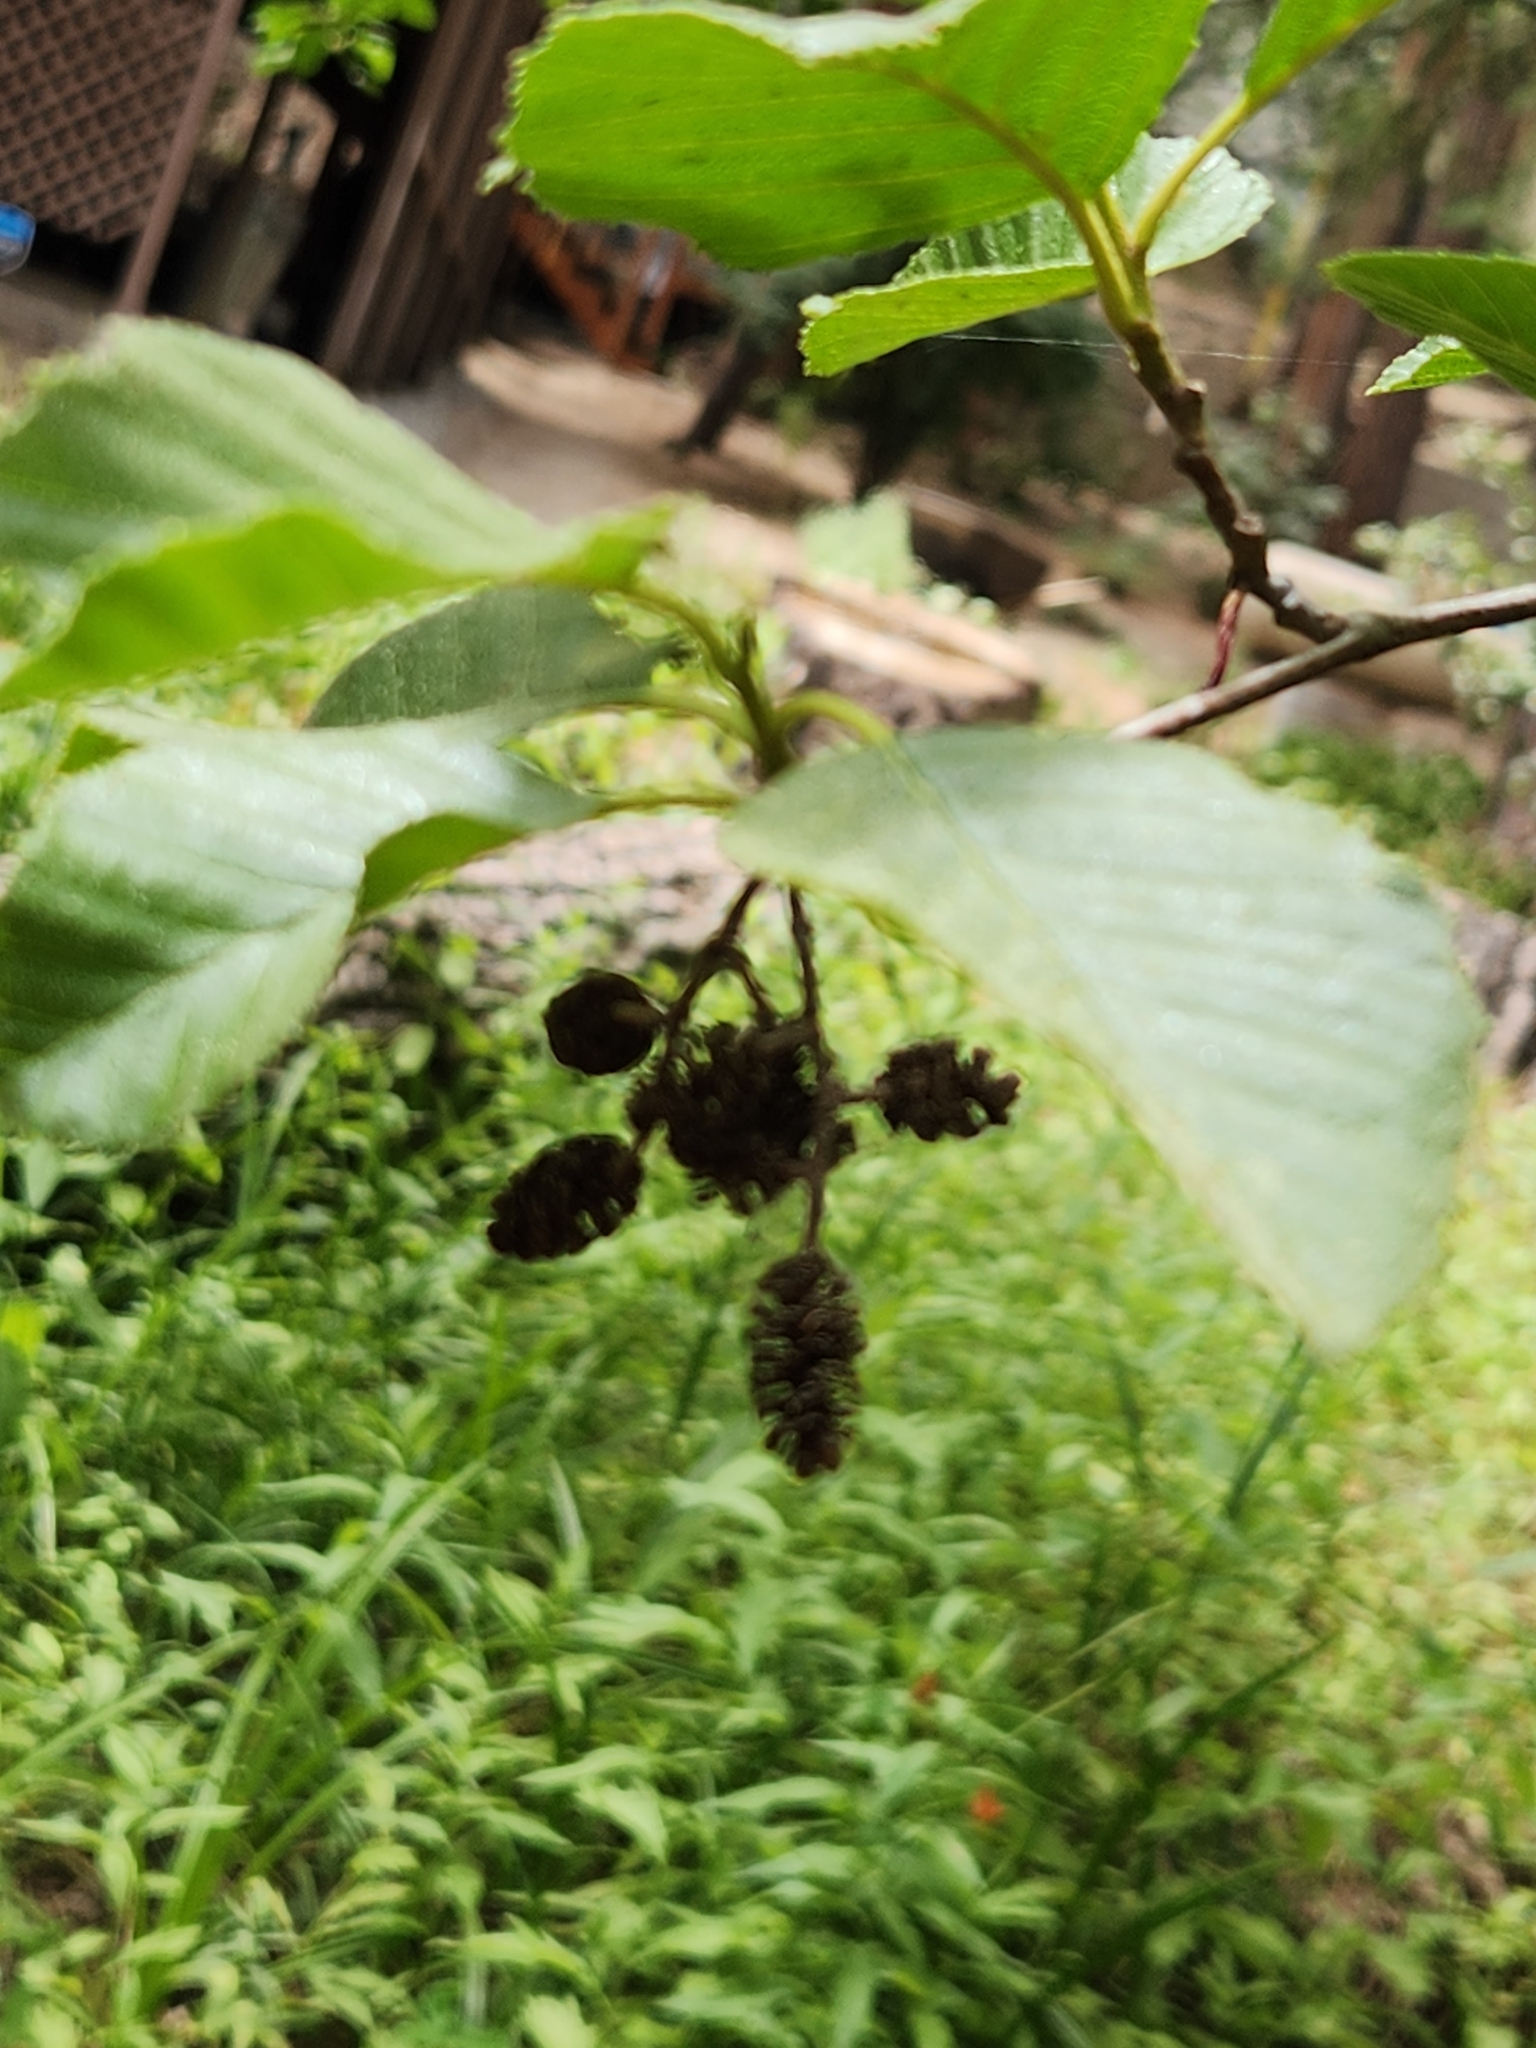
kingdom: Plantae
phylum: Tracheophyta
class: Magnoliopsida
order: Fagales
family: Betulaceae
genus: Alnus
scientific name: Alnus rhombifolia
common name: California alder
